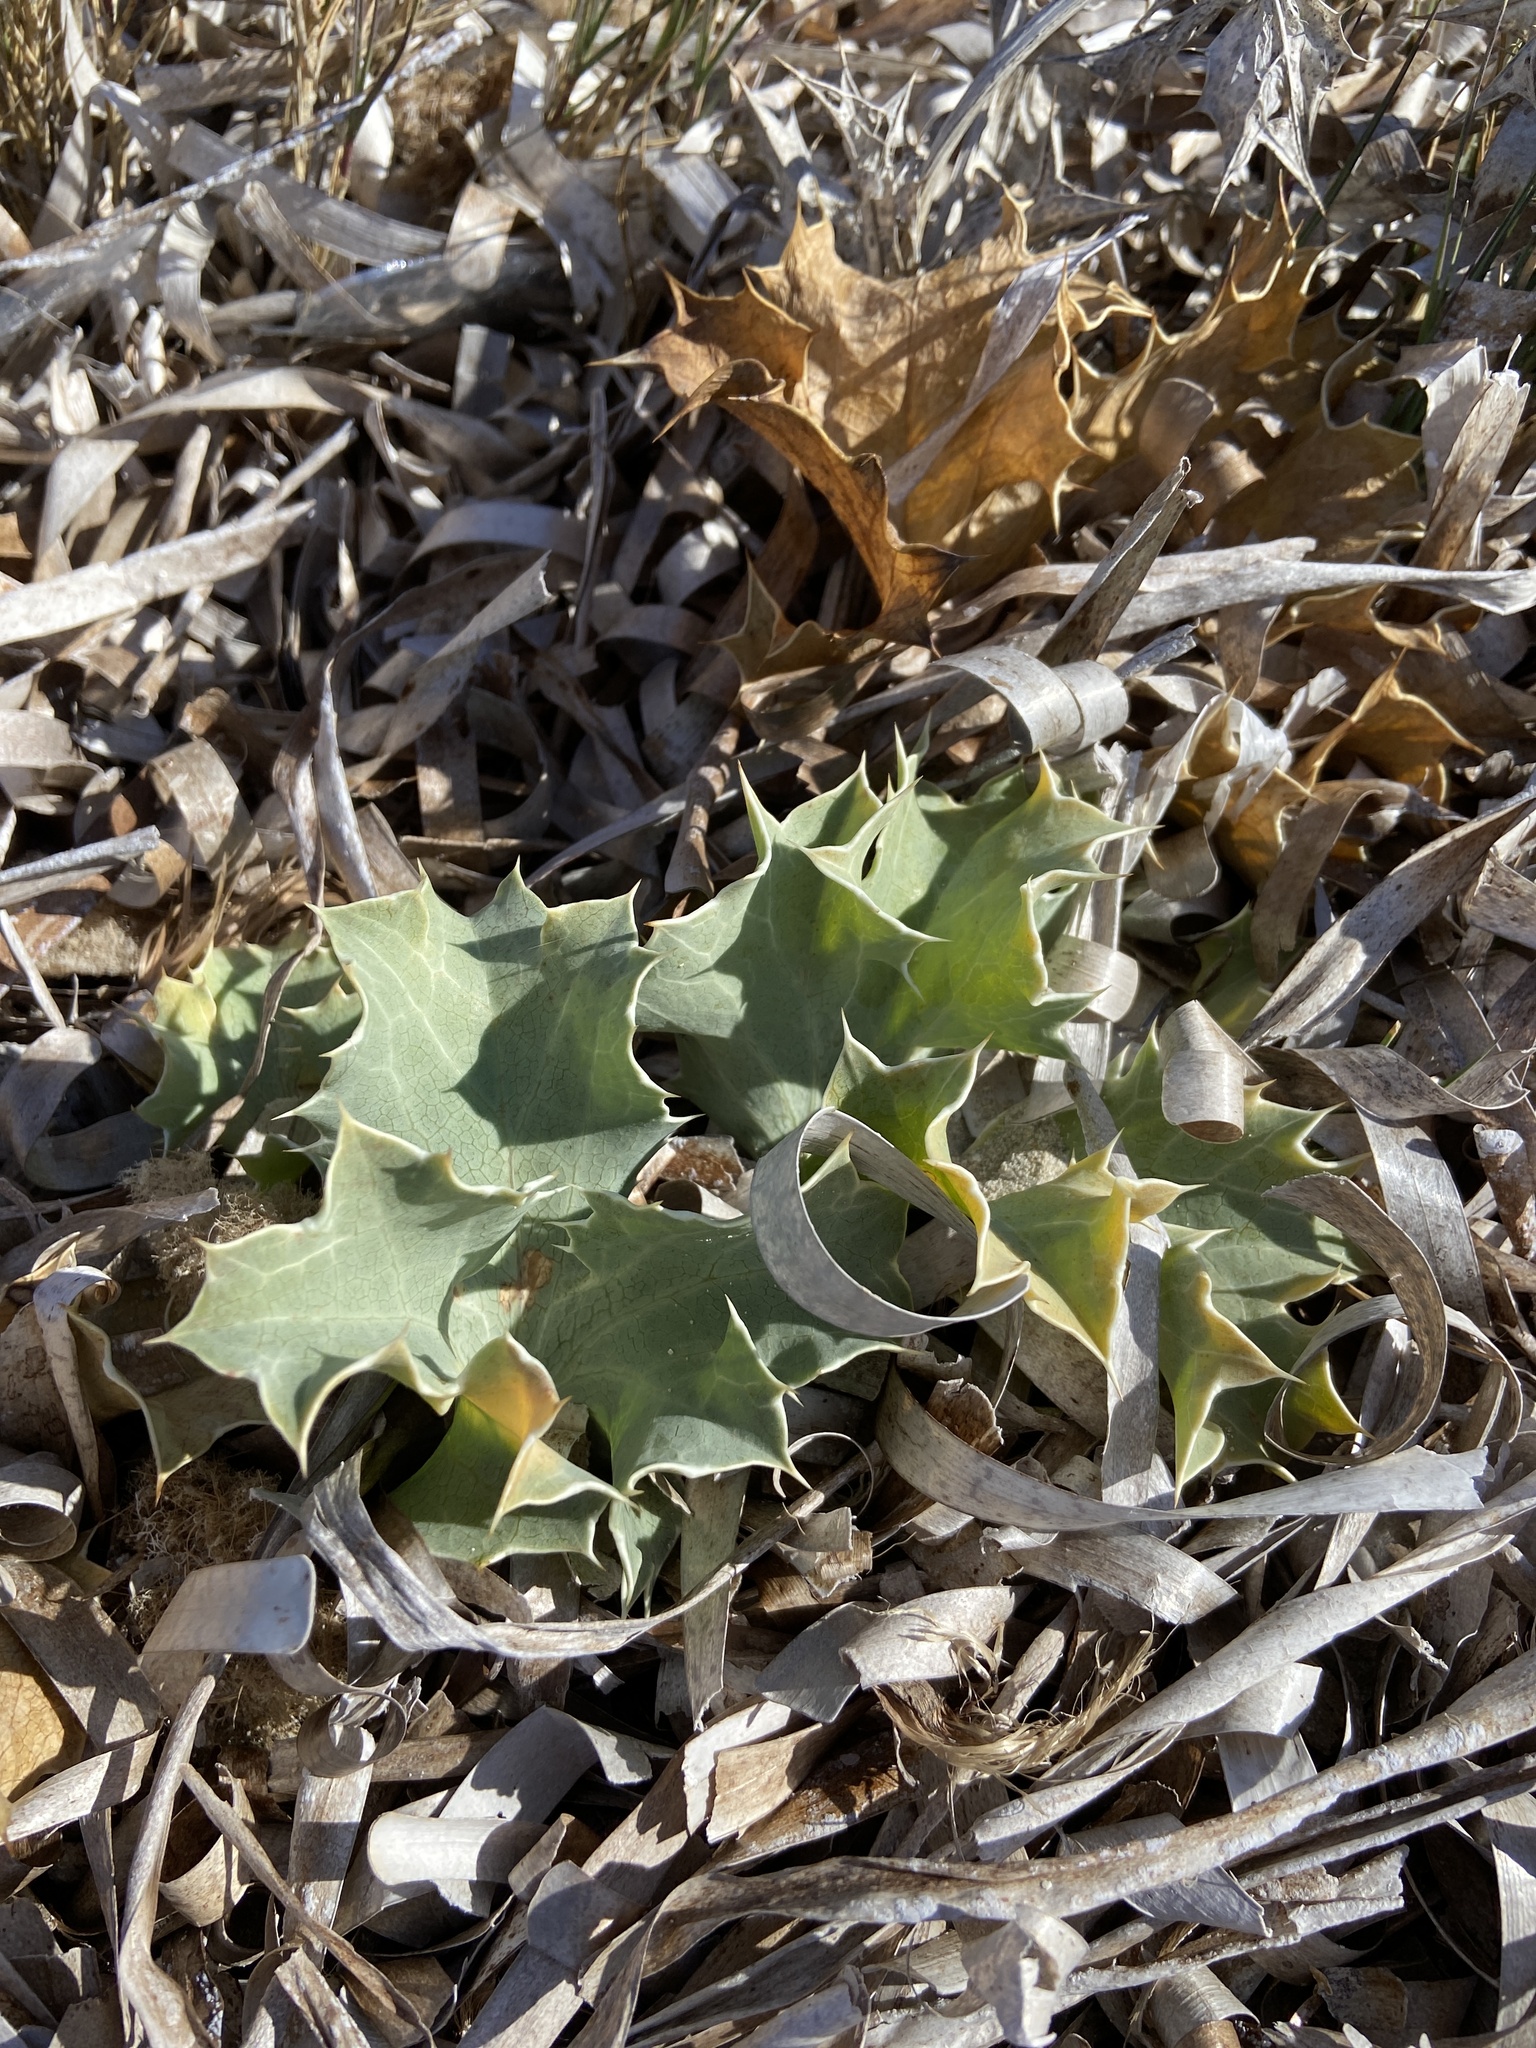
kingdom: Plantae
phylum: Tracheophyta
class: Magnoliopsida
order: Apiales
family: Apiaceae
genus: Eryngium
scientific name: Eryngium maritimum
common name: Sea-holly
